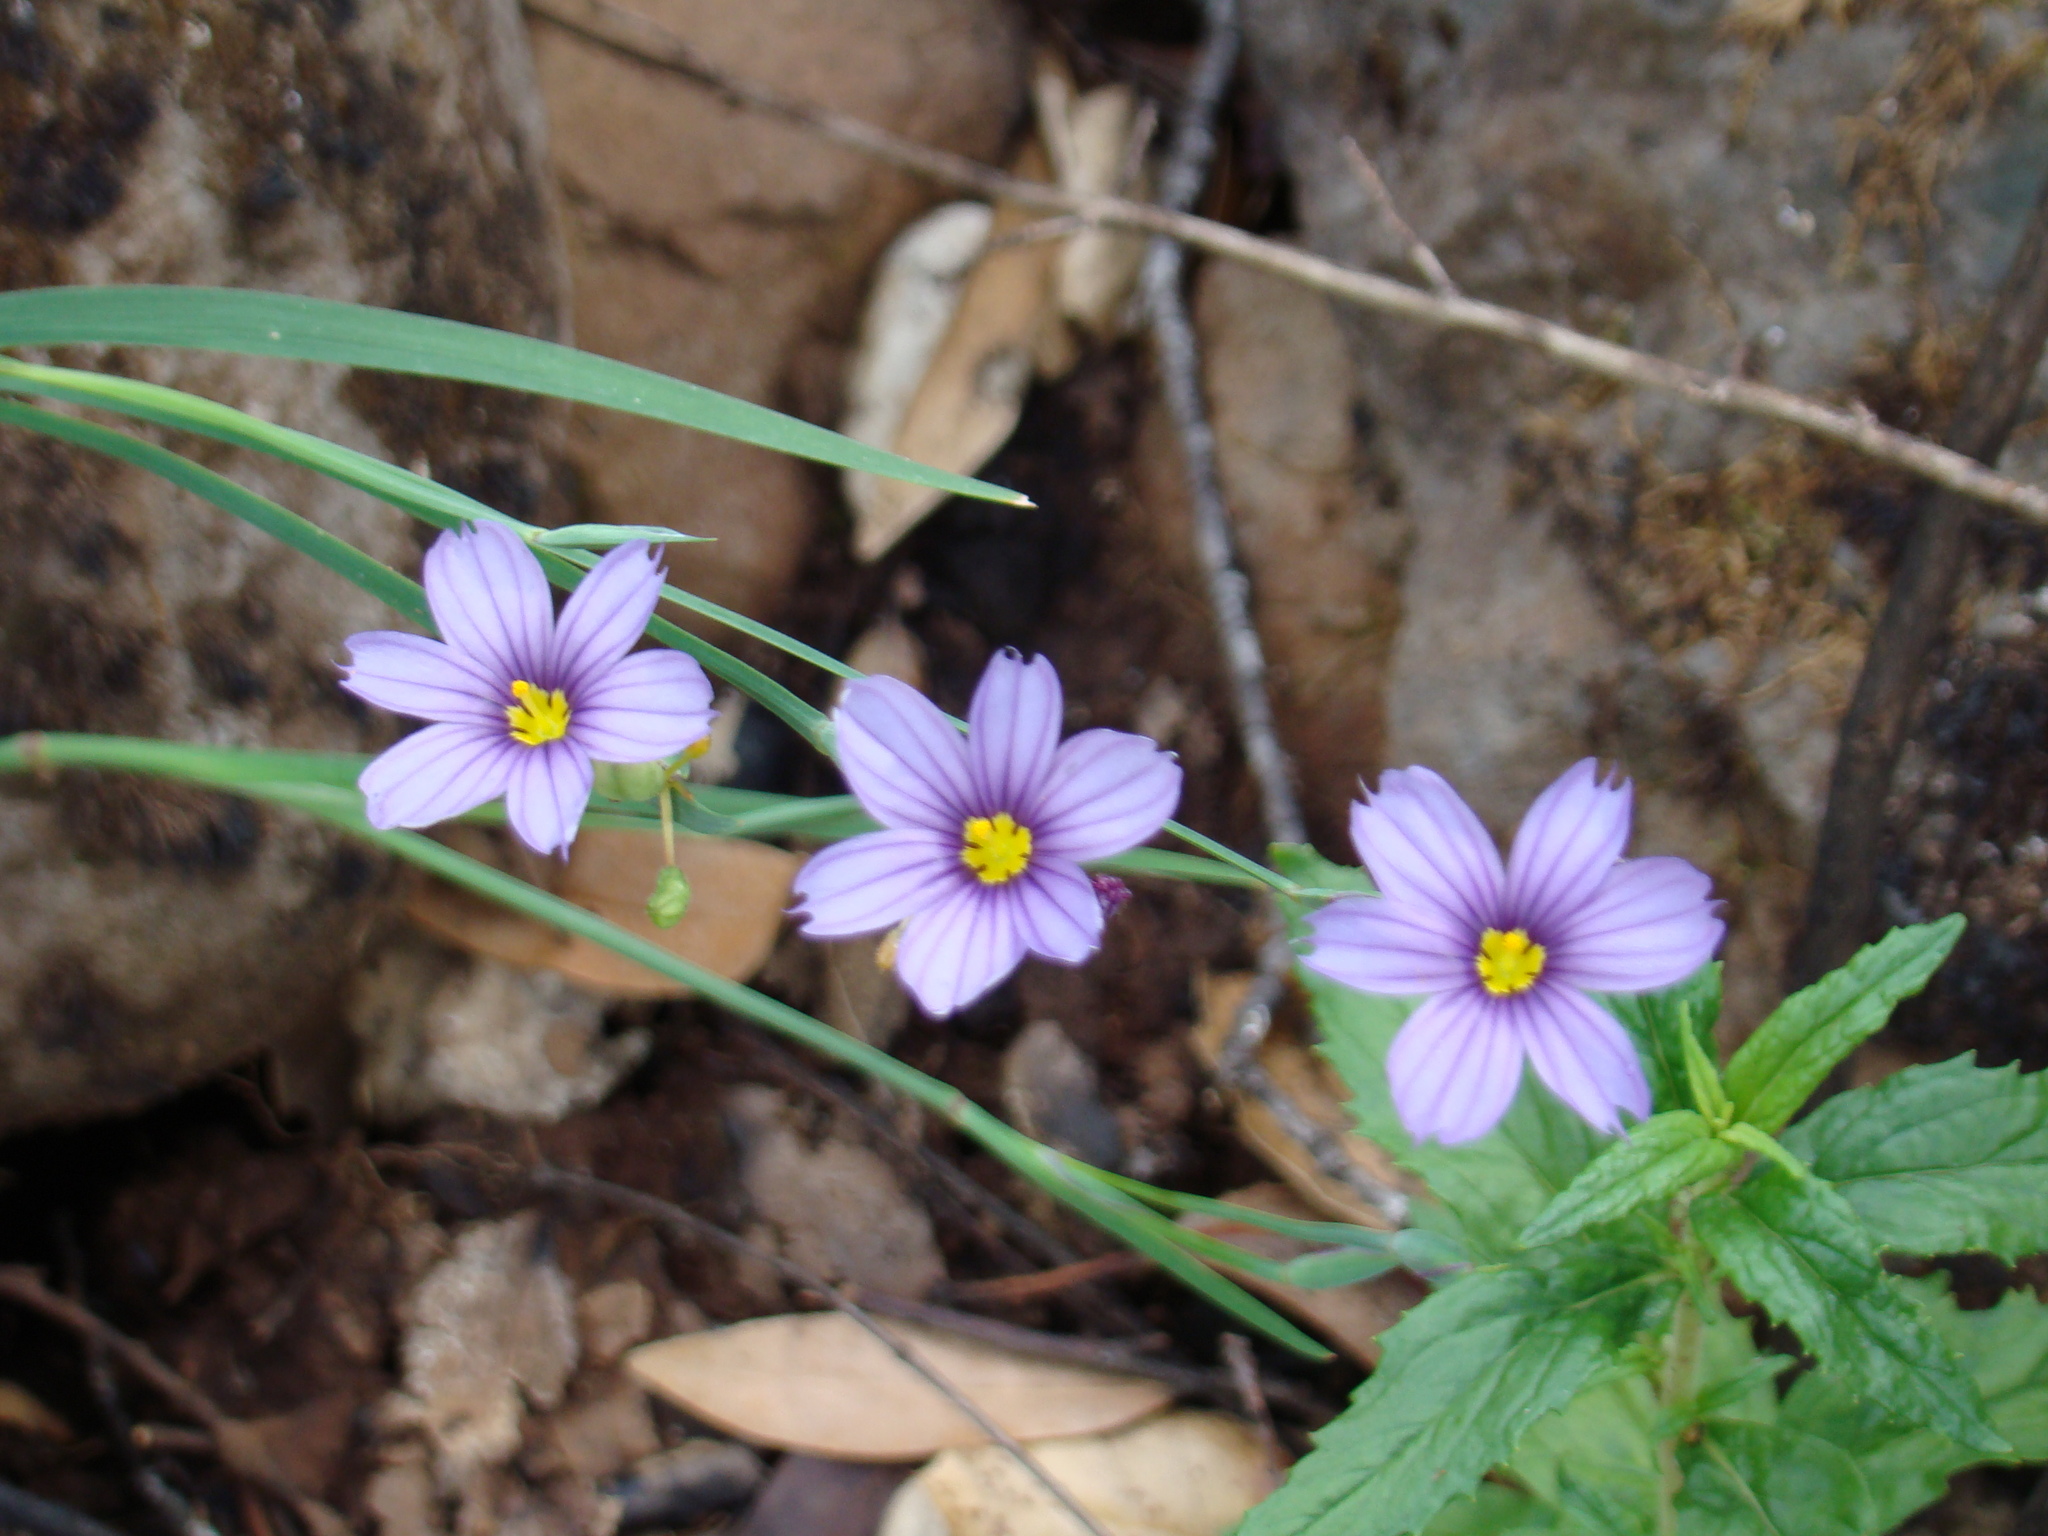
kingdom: Plantae
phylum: Tracheophyta
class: Liliopsida
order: Asparagales
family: Iridaceae
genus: Sisyrinchium
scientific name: Sisyrinchium bellum
